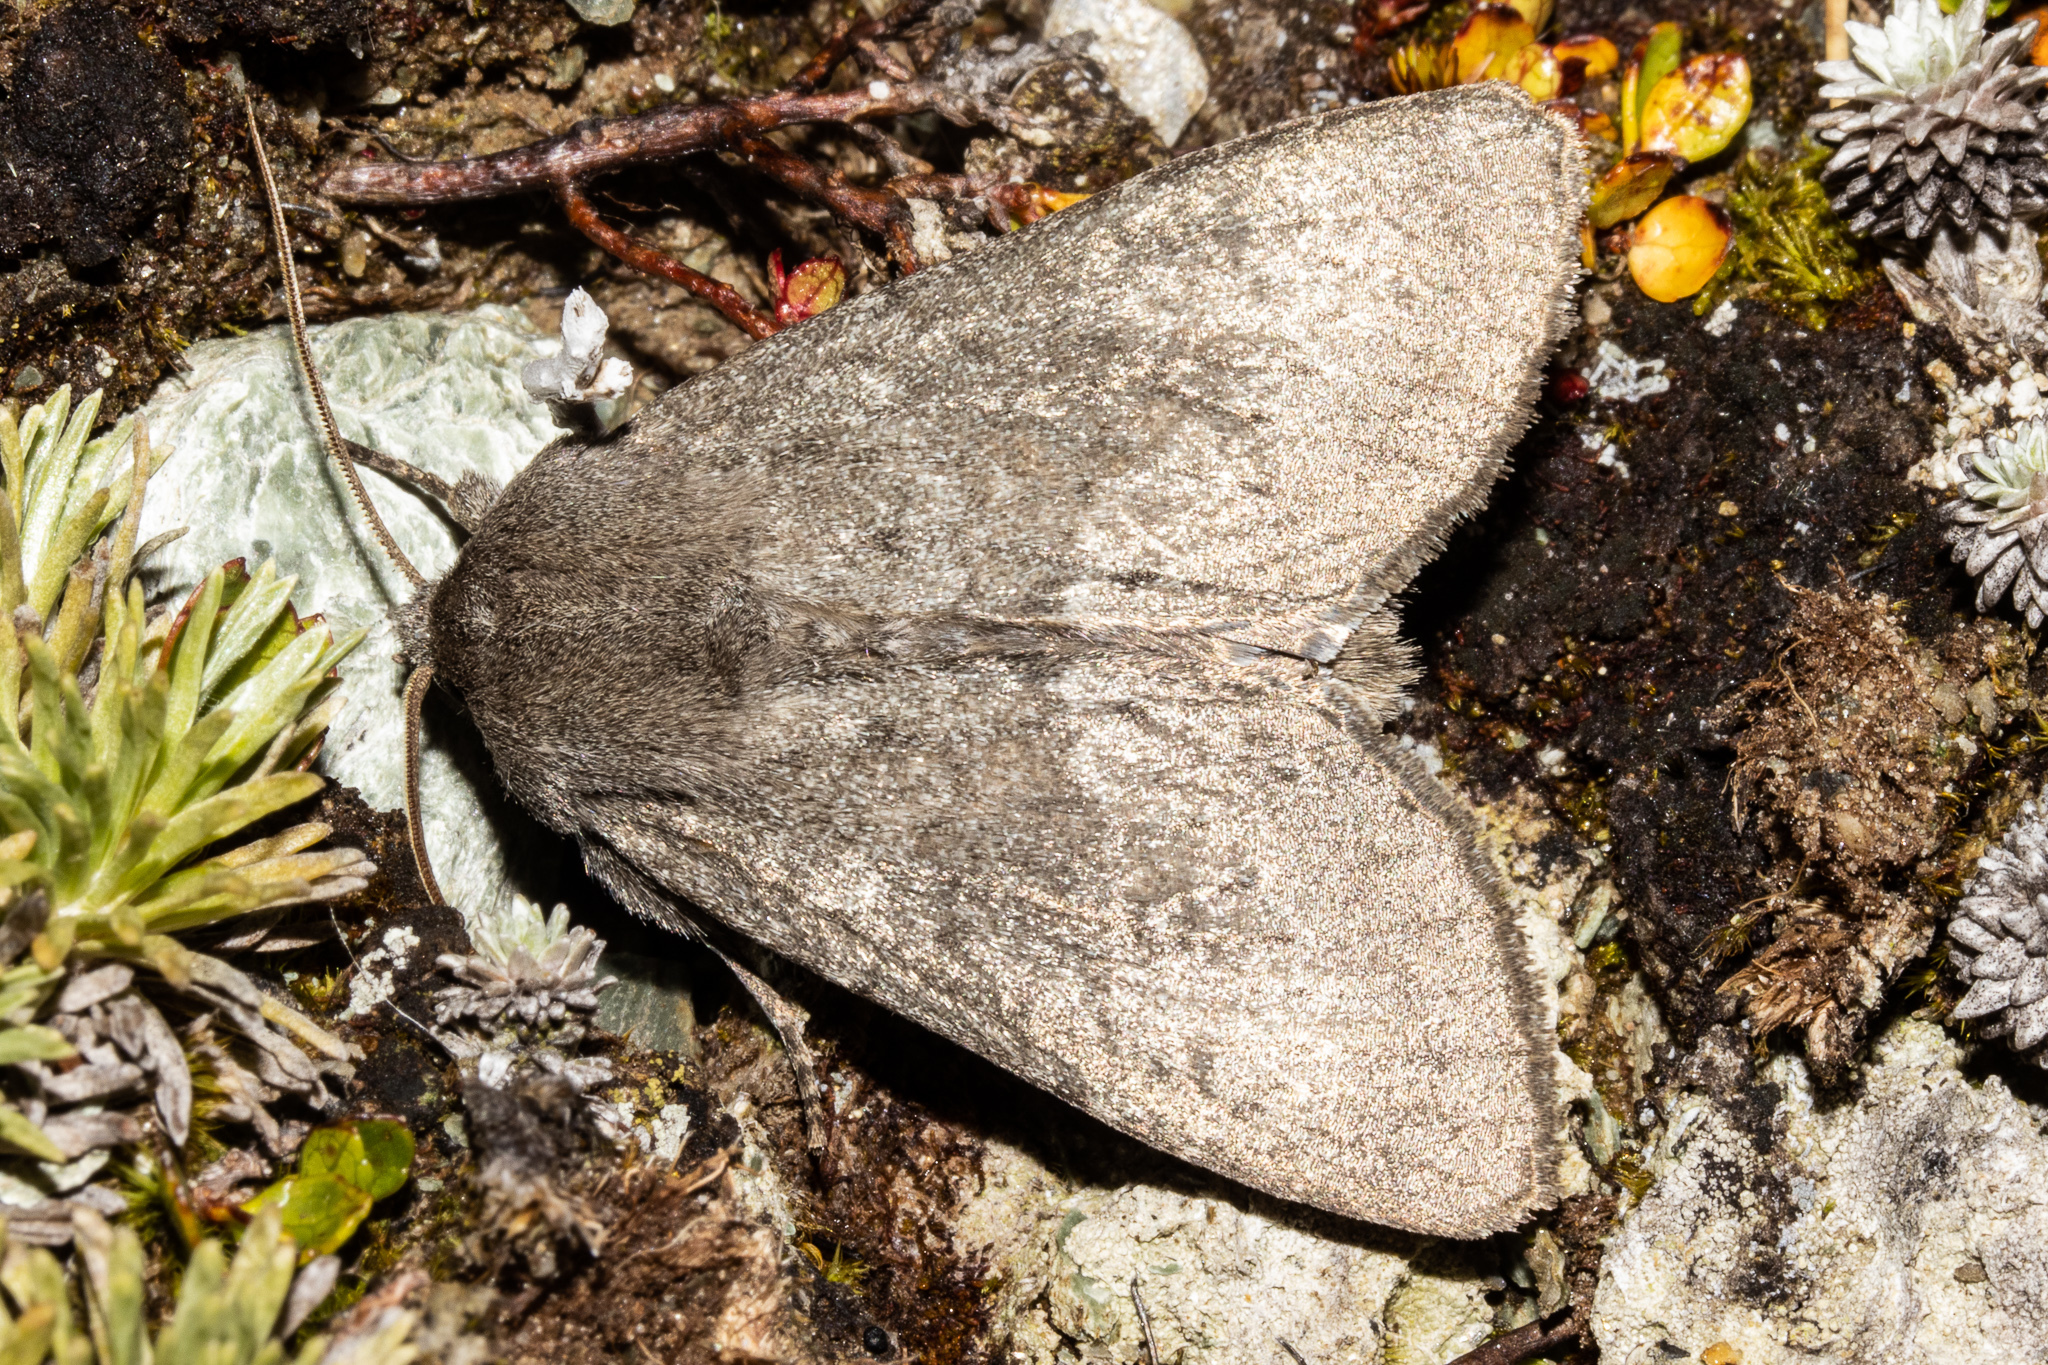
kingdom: Animalia
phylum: Arthropoda
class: Insecta
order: Lepidoptera
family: Noctuidae
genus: Ichneutica
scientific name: Ichneutica nullifera
